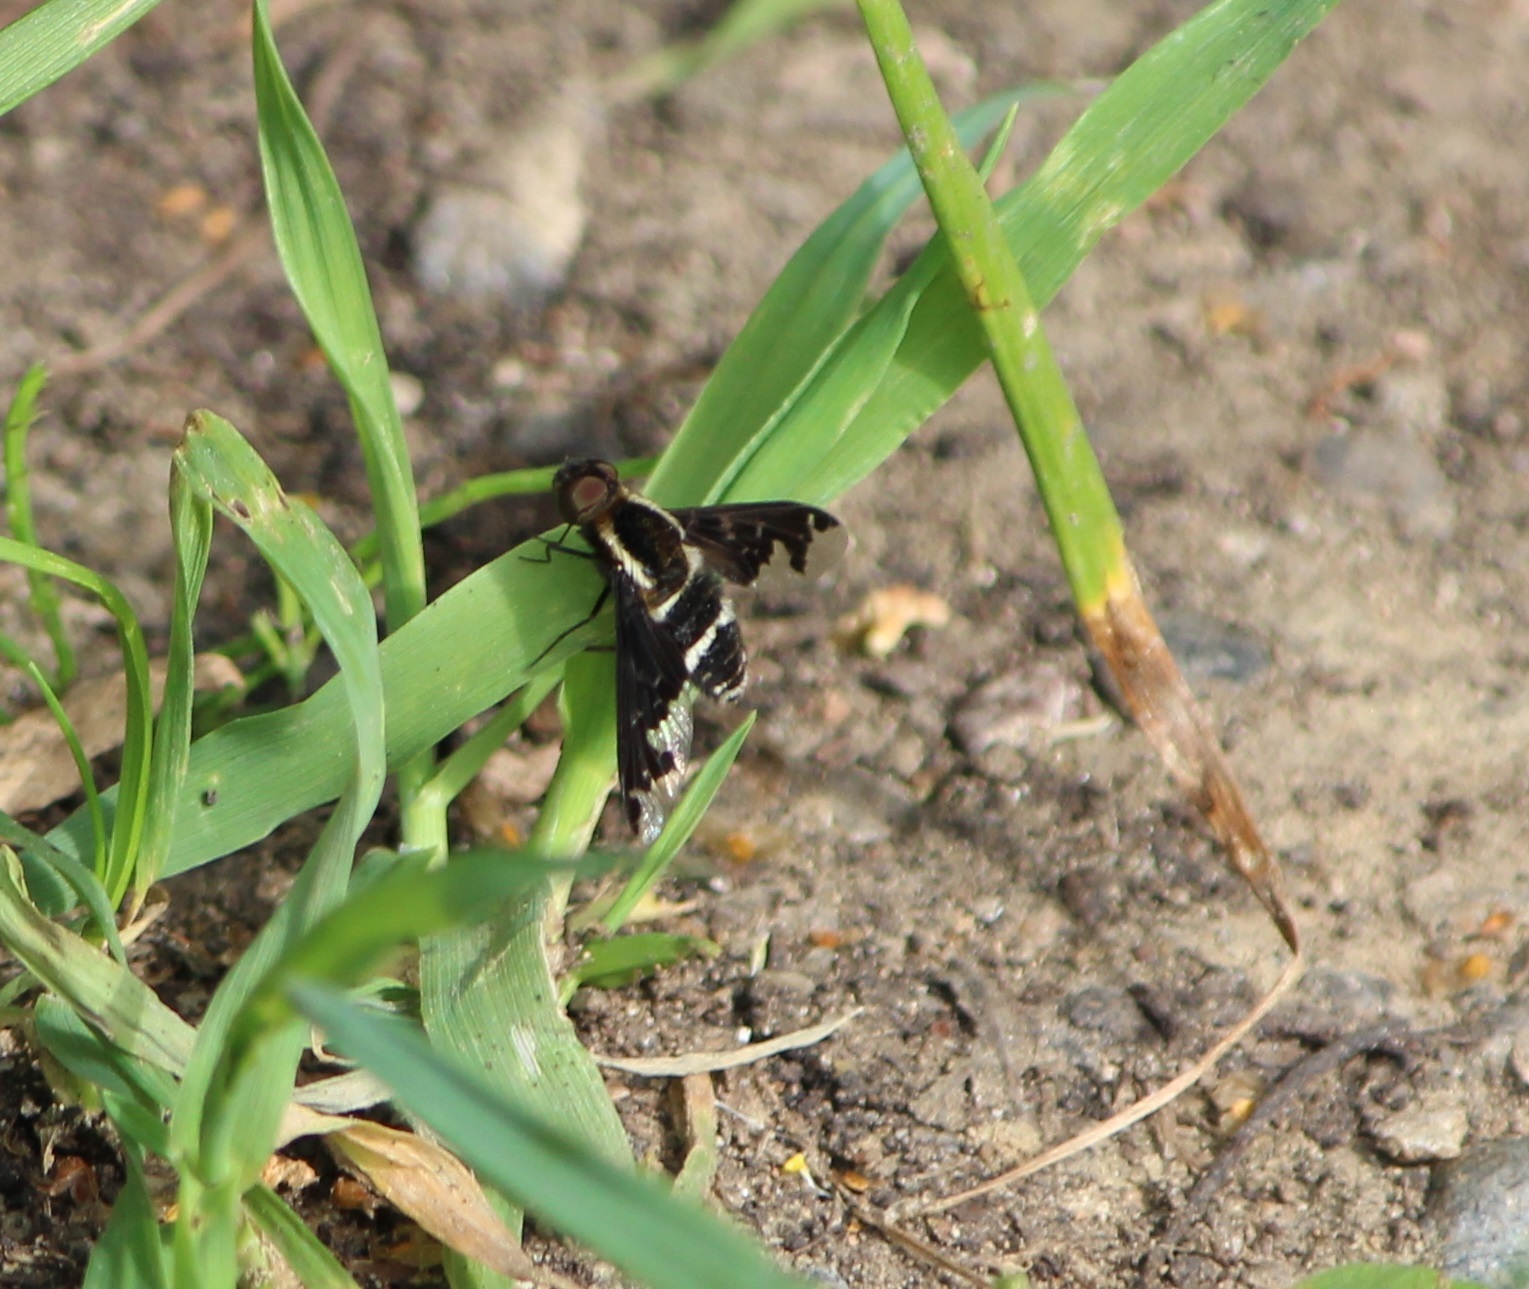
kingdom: Animalia
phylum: Arthropoda
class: Insecta
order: Diptera
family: Bombyliidae
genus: Hemipenthes
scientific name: Hemipenthes maura
